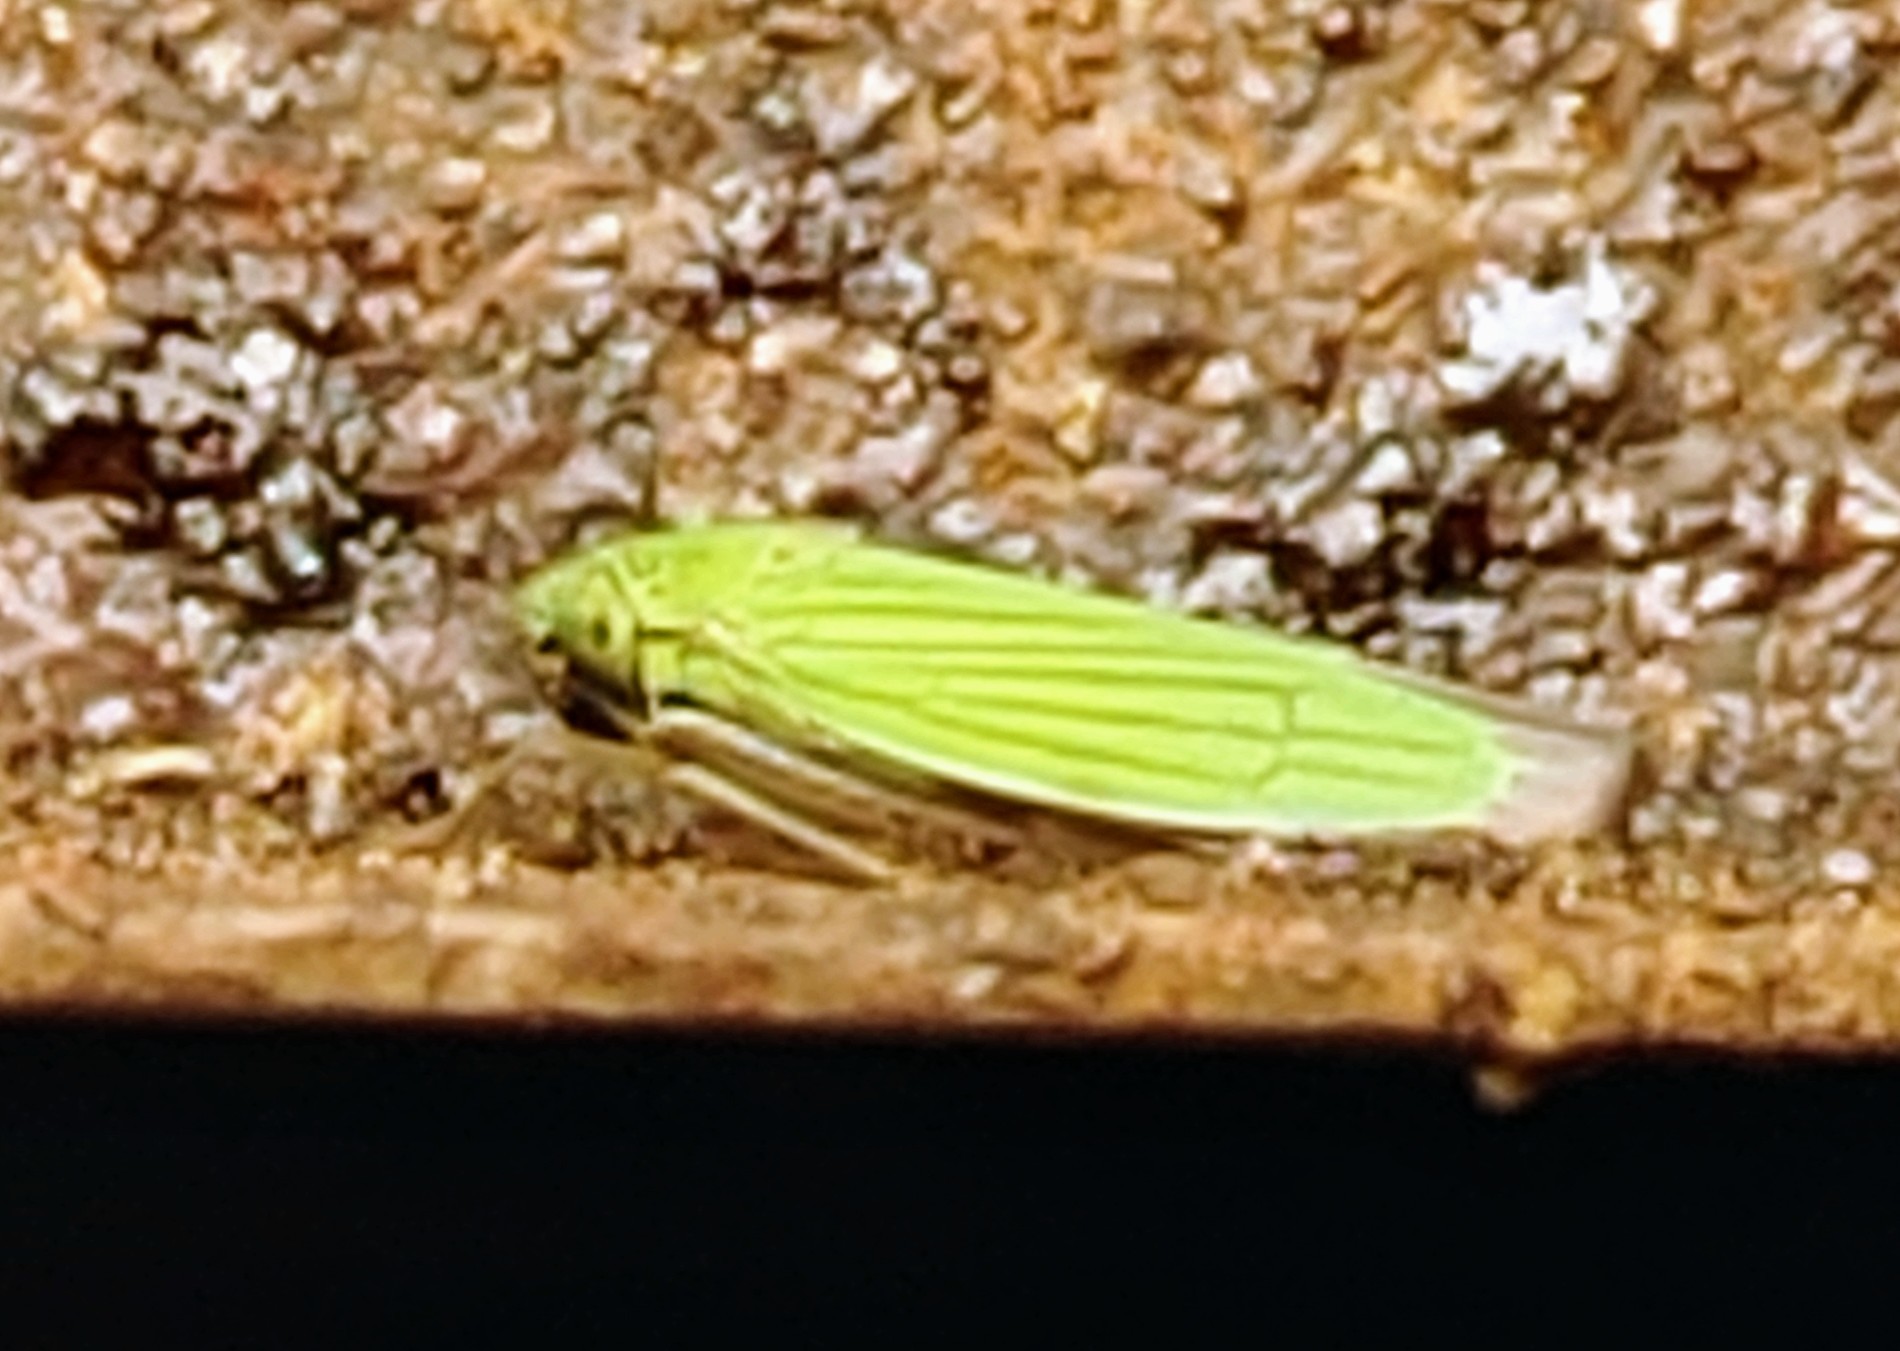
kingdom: Animalia
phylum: Arthropoda
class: Insecta
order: Hemiptera
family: Cicadellidae
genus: Hortensia
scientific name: Hortensia similis
